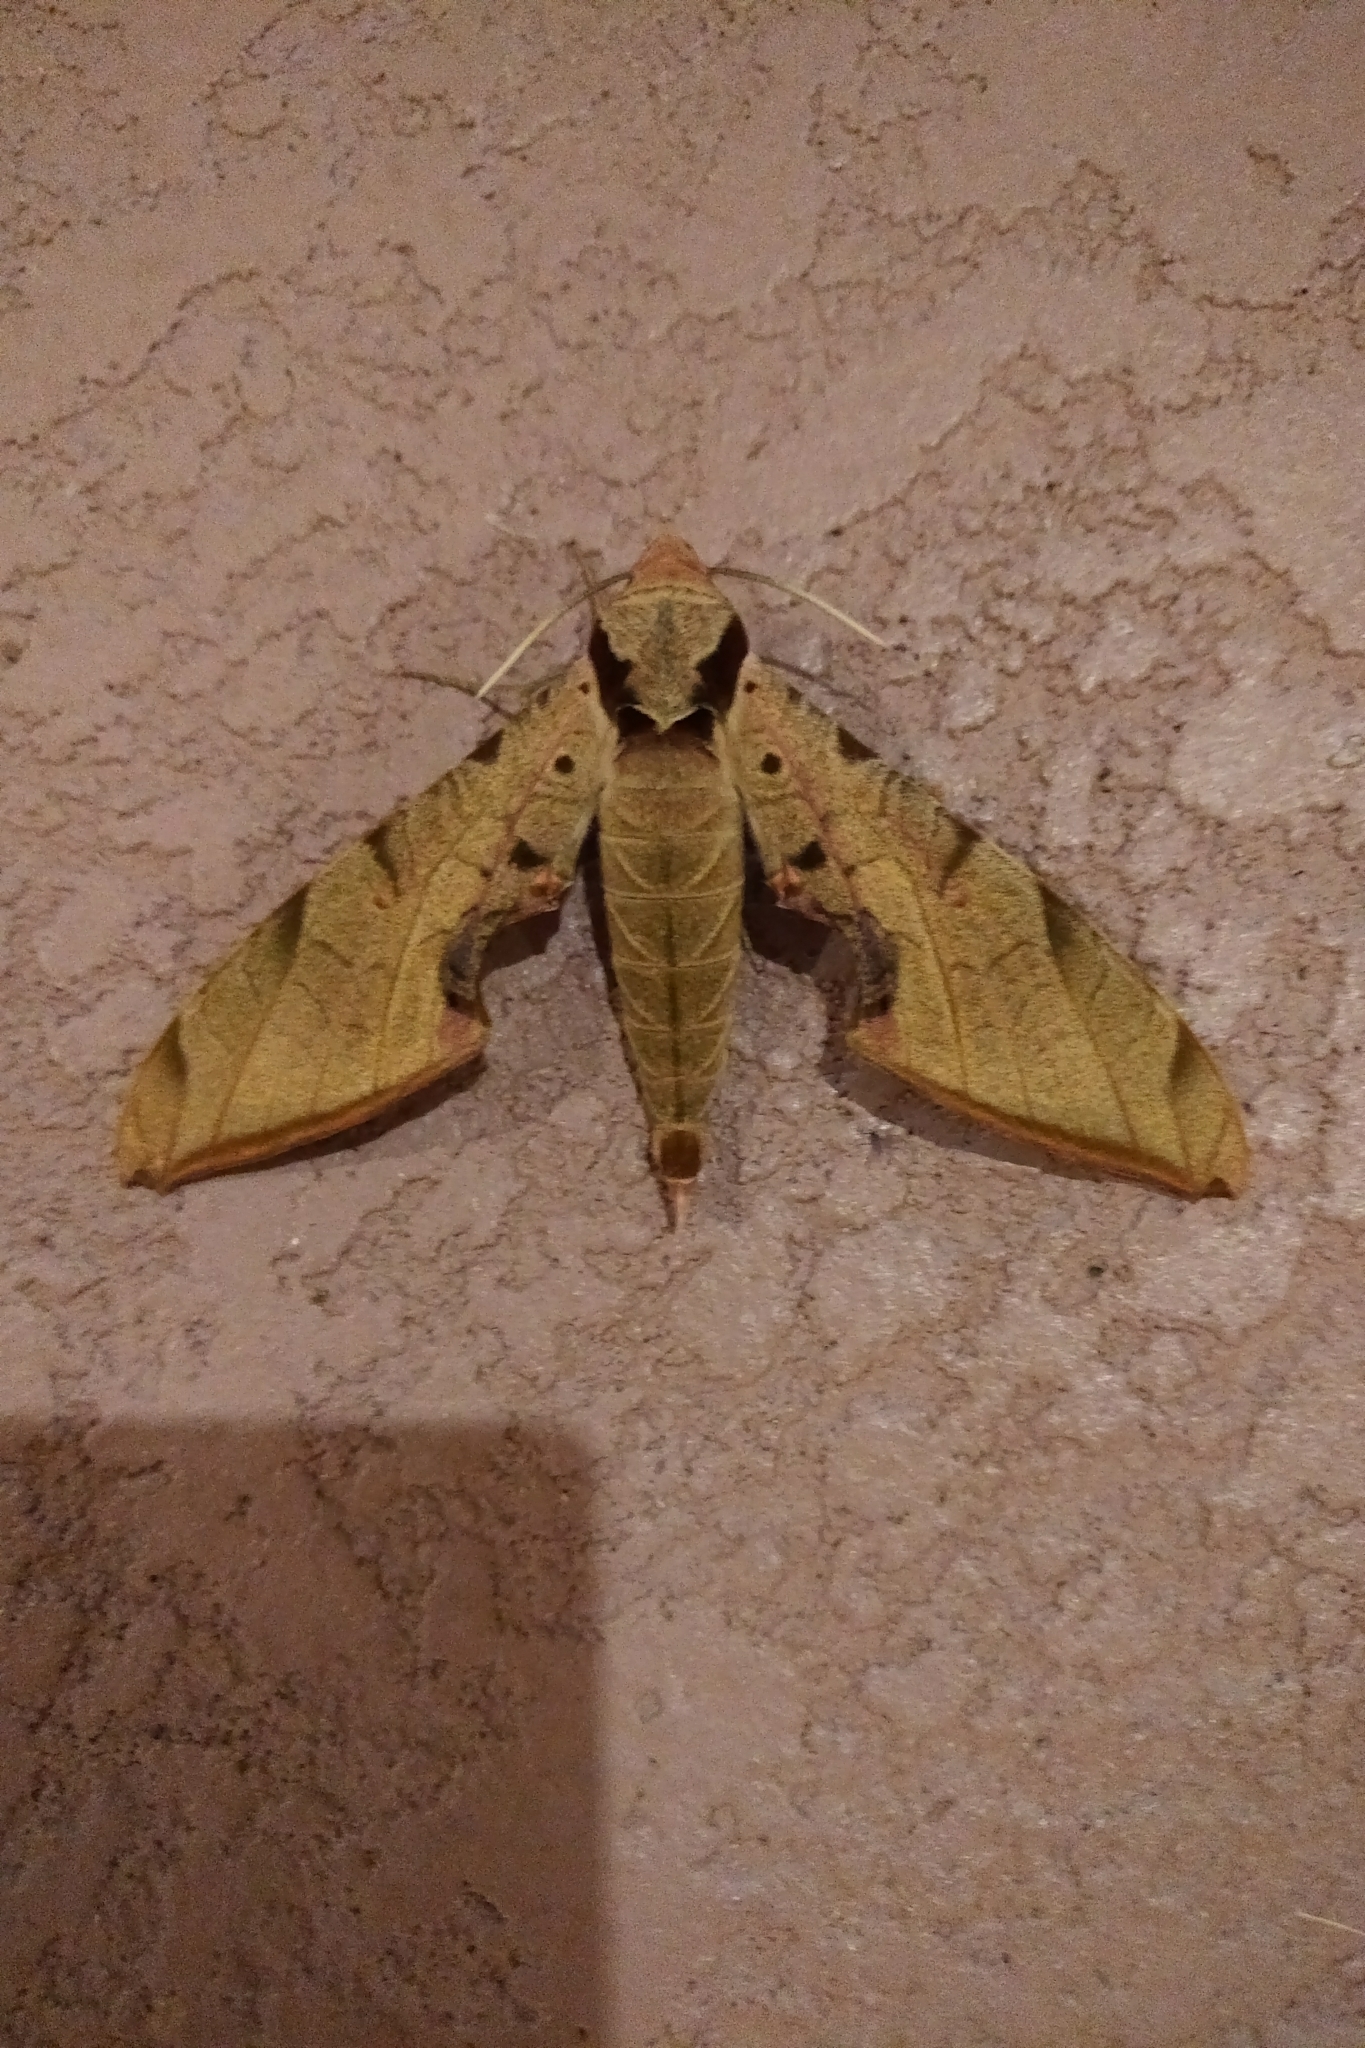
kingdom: Animalia
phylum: Arthropoda
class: Insecta
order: Lepidoptera
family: Sphingidae
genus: Protambulyx
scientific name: Protambulyx strigilis
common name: Streaked sphinx
